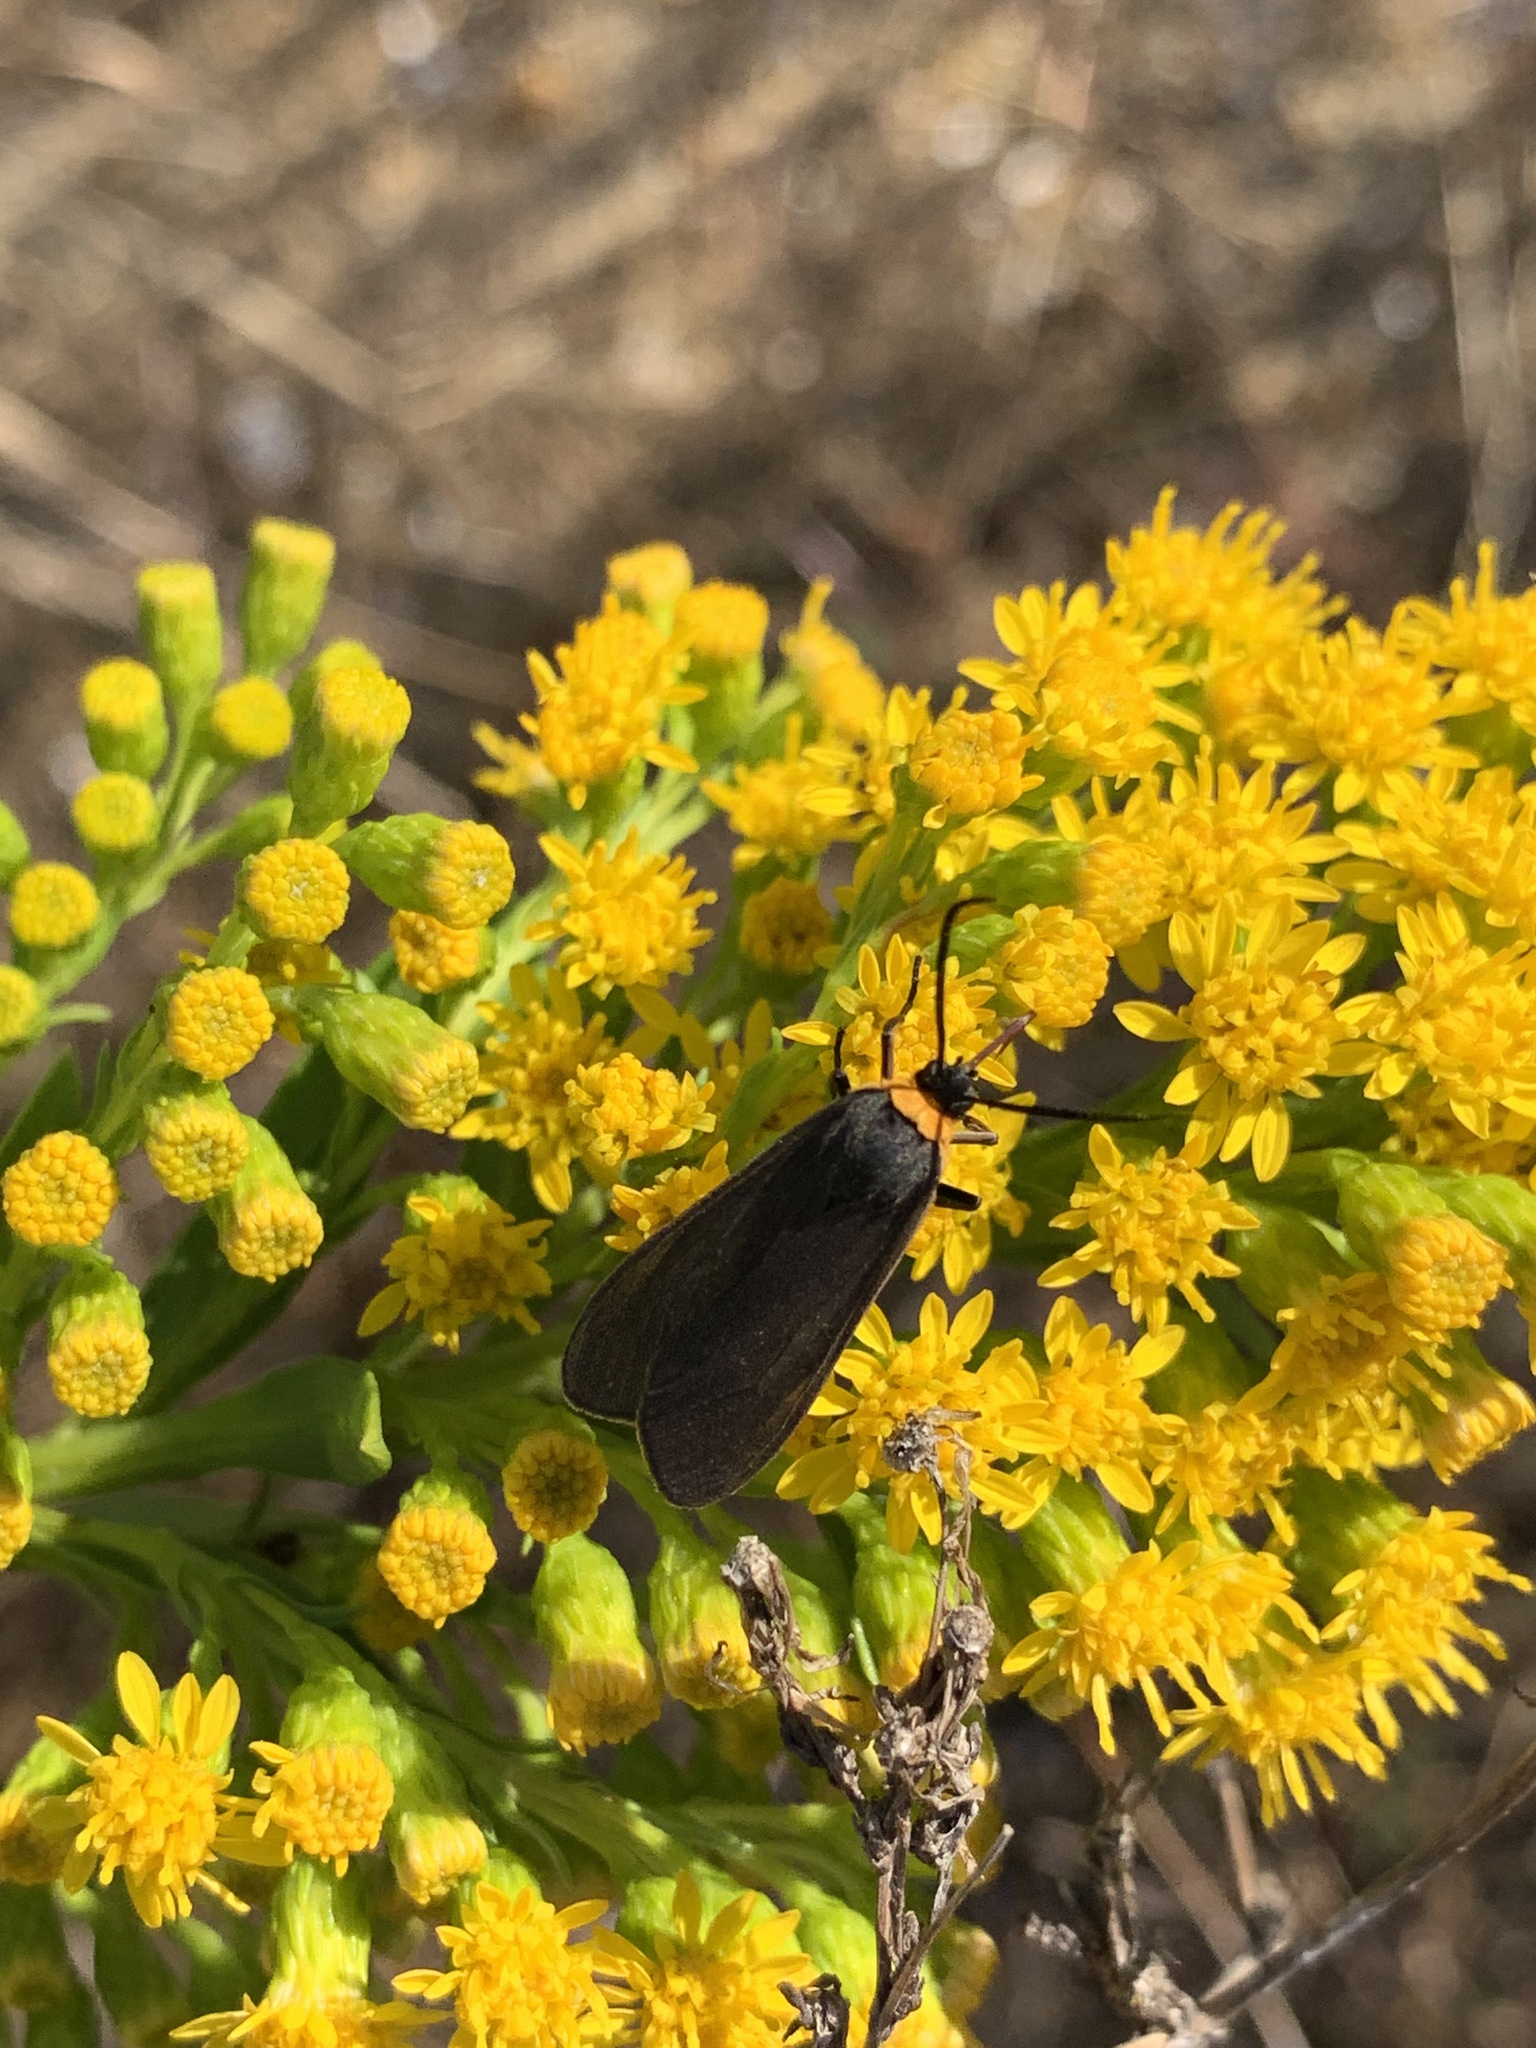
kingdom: Animalia
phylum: Arthropoda
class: Insecta
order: Lepidoptera
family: Erebidae
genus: Cisseps
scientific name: Cisseps fulvicollis
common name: Yellow-collared scape moth
